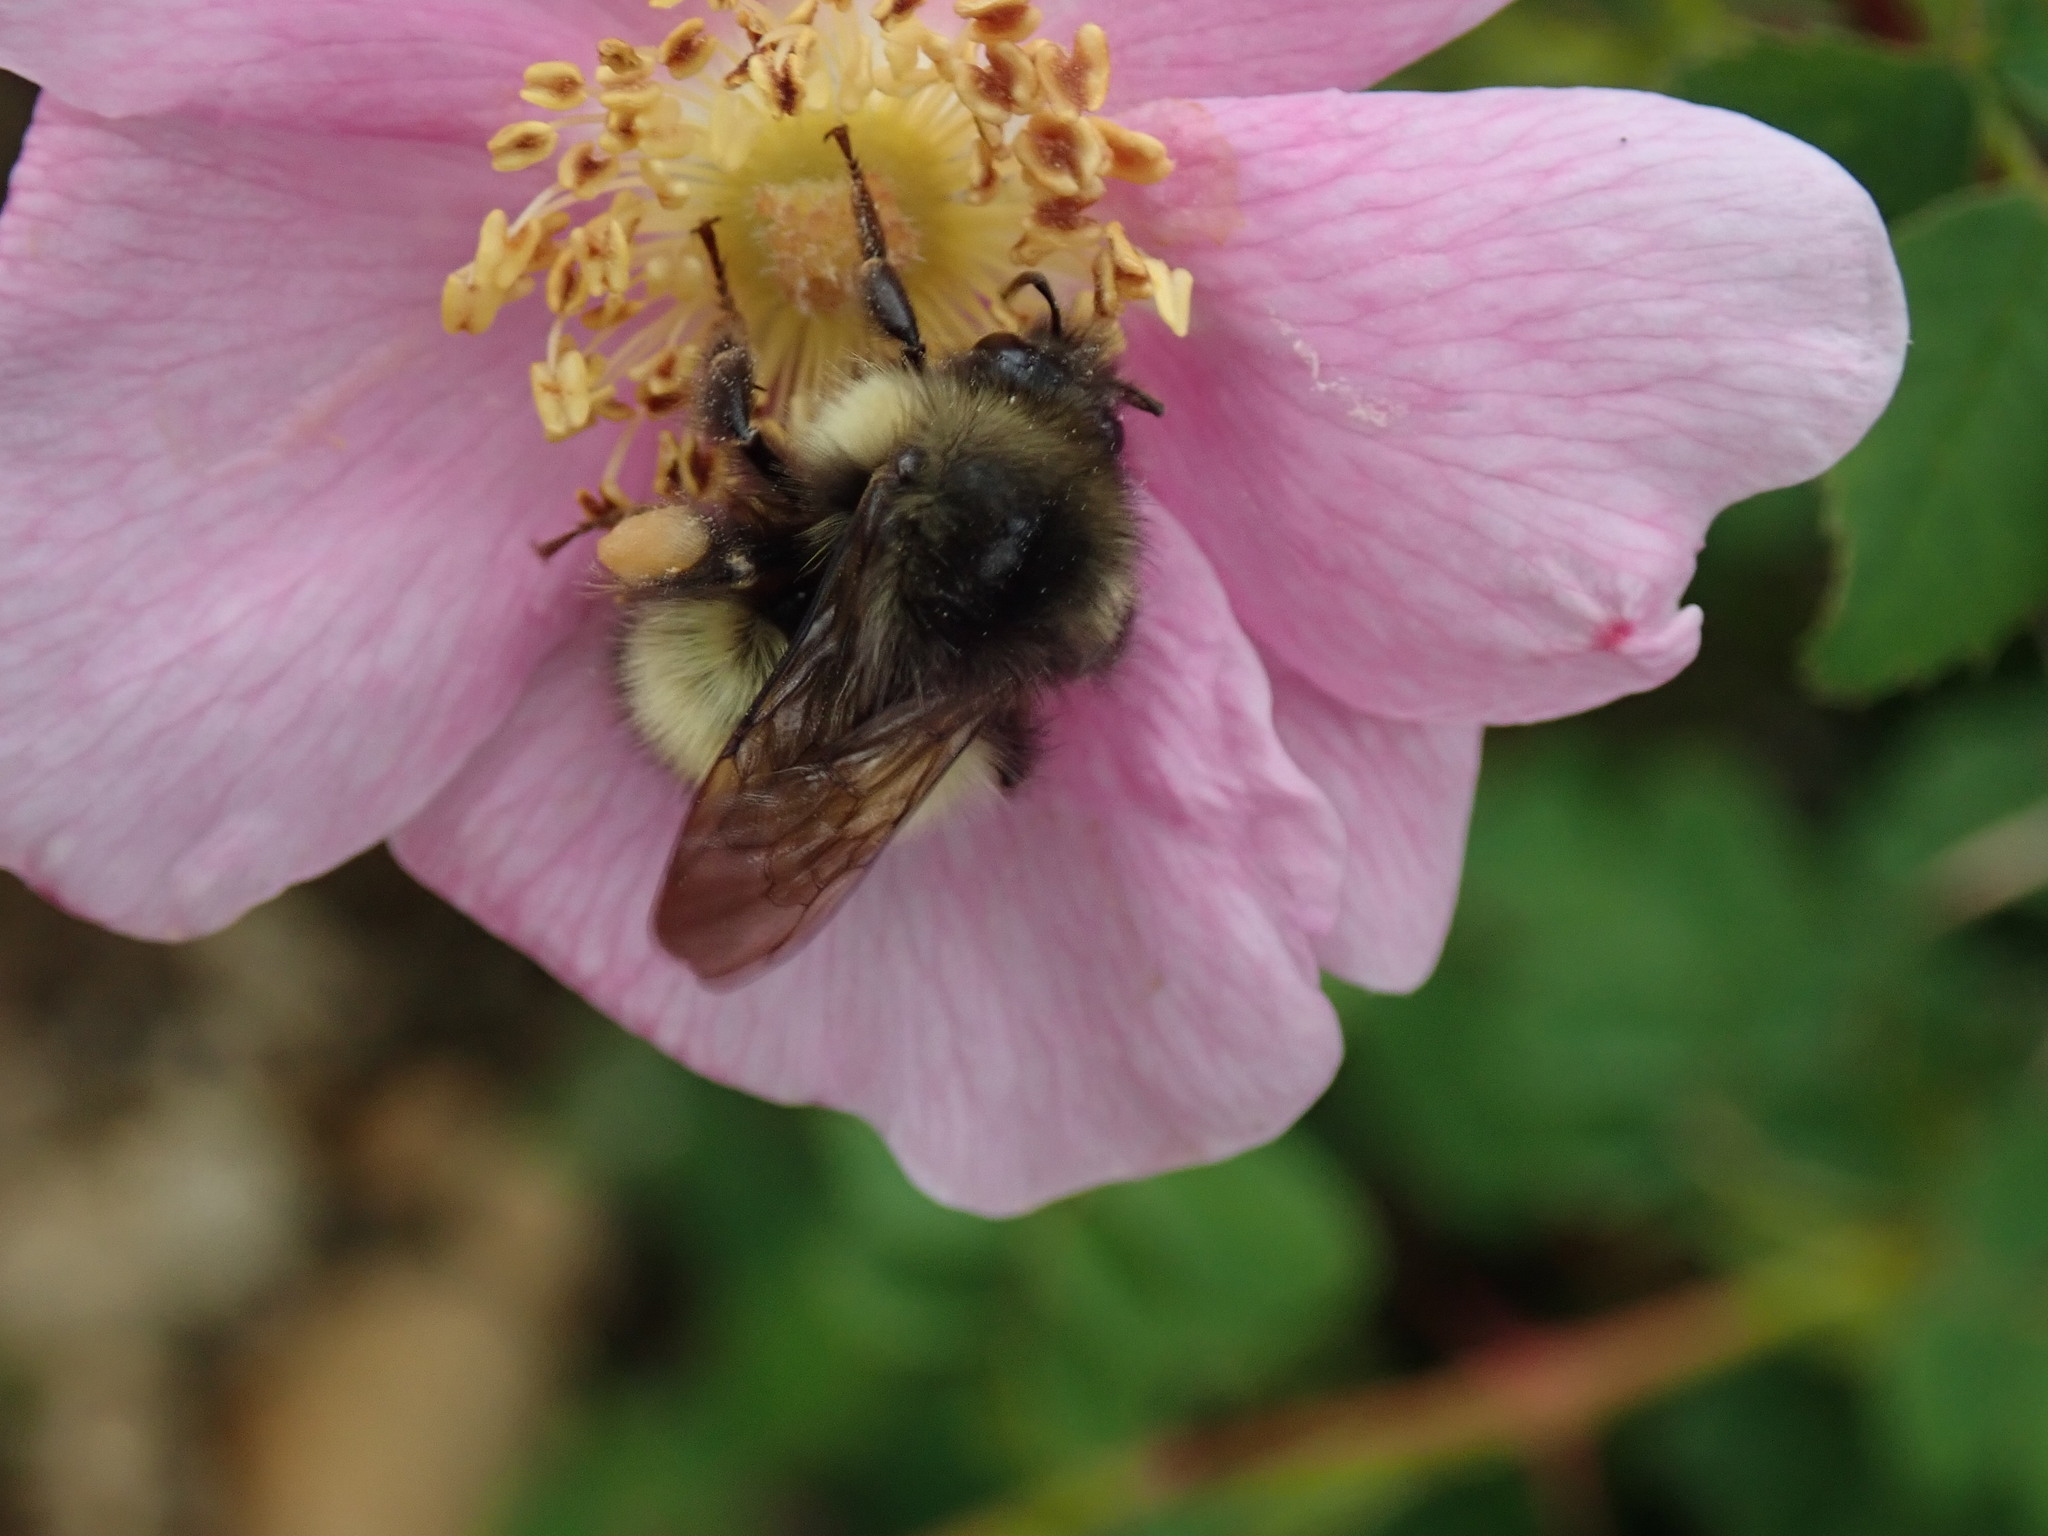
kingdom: Animalia
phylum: Arthropoda
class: Insecta
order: Hymenoptera
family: Apidae
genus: Bombus
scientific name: Bombus sitkensis
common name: Sitka bumble bee
